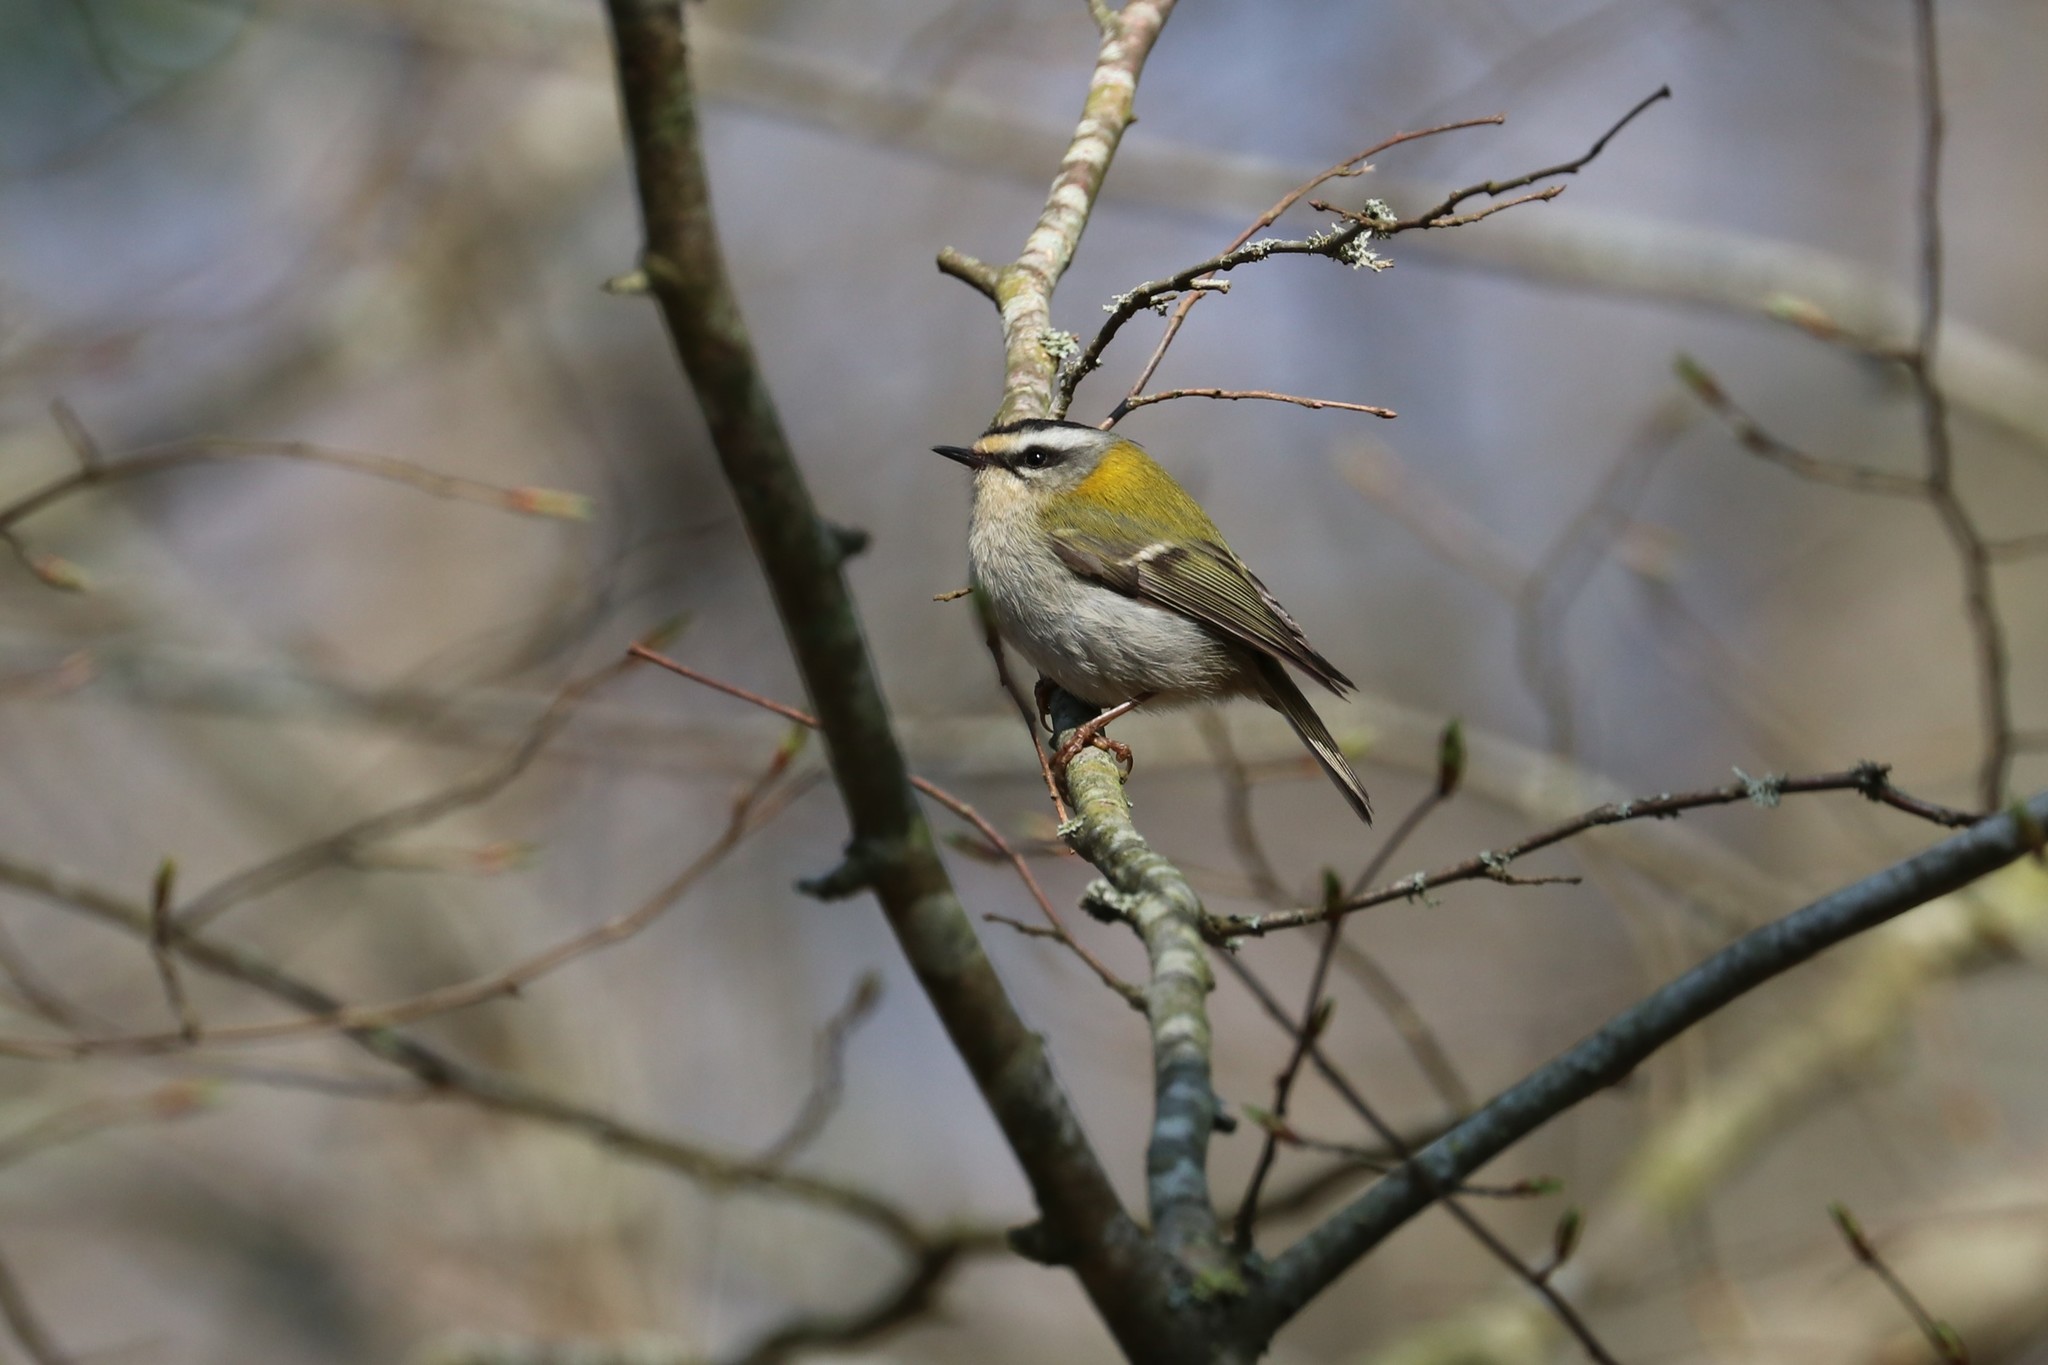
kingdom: Animalia
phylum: Chordata
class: Aves
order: Passeriformes
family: Regulidae
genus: Regulus
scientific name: Regulus ignicapilla
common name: Firecrest
